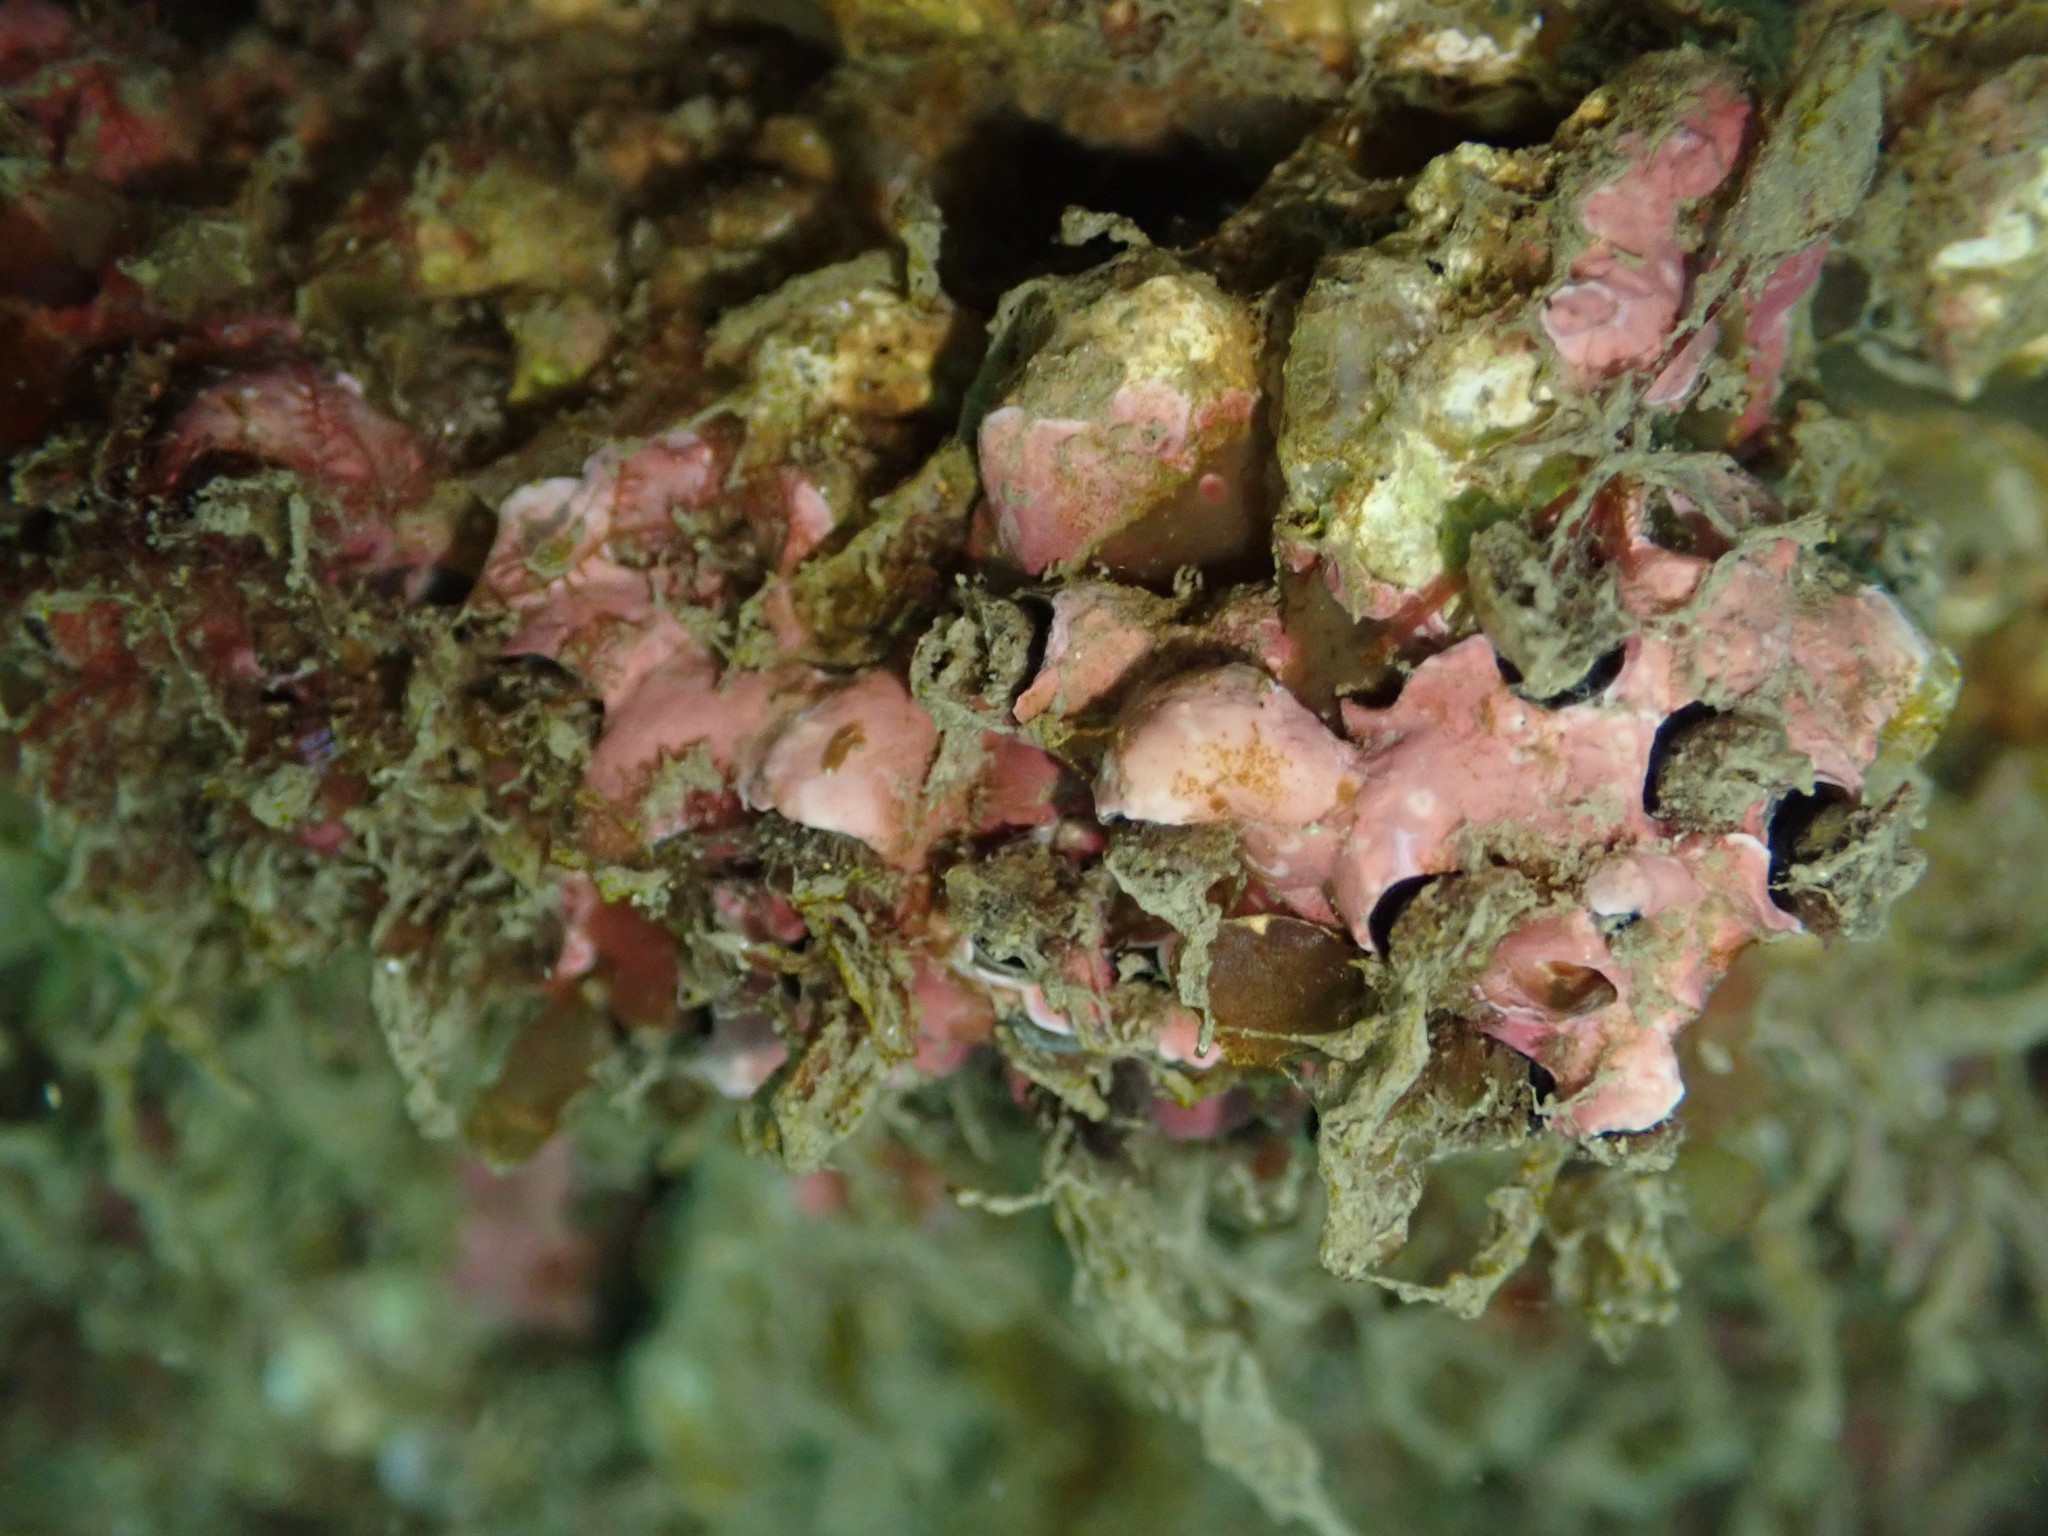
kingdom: Animalia
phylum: Mollusca
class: Gastropoda
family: Siliquariidae
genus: Stephopoma
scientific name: Stephopoma roseum
